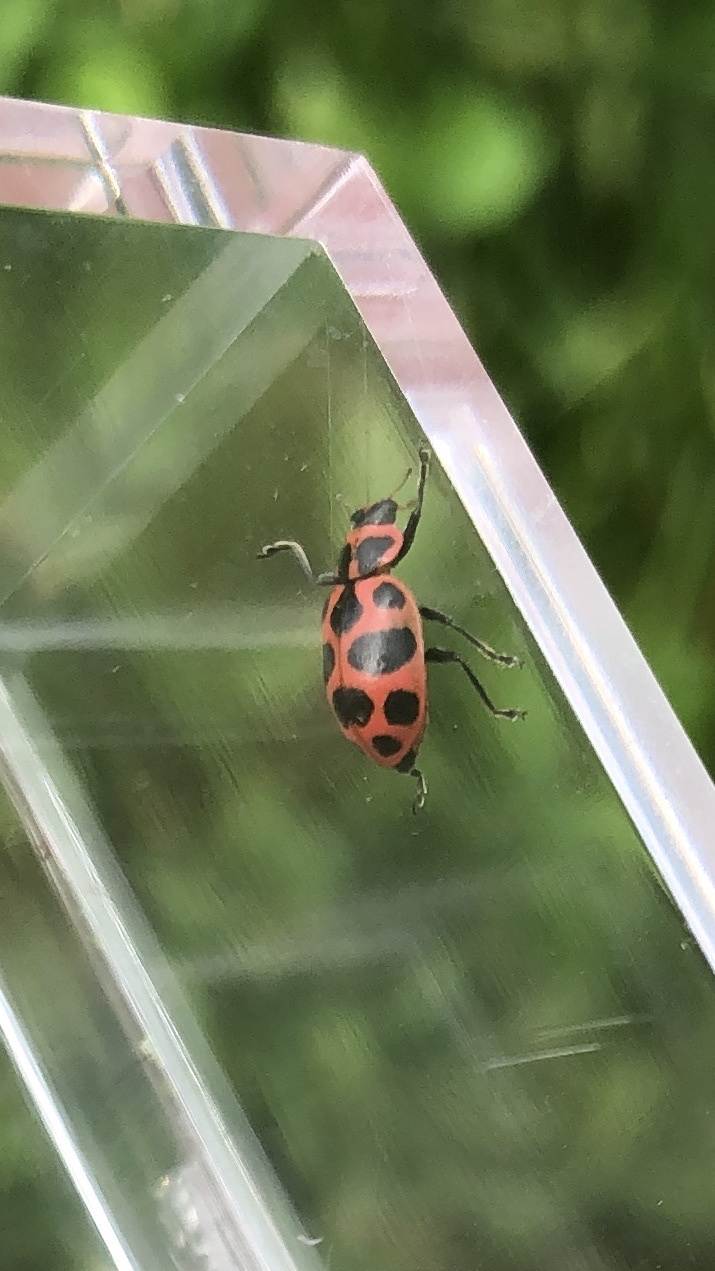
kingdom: Animalia
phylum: Arthropoda
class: Insecta
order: Coleoptera
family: Coccinellidae
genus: Coleomegilla
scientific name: Coleomegilla maculata
